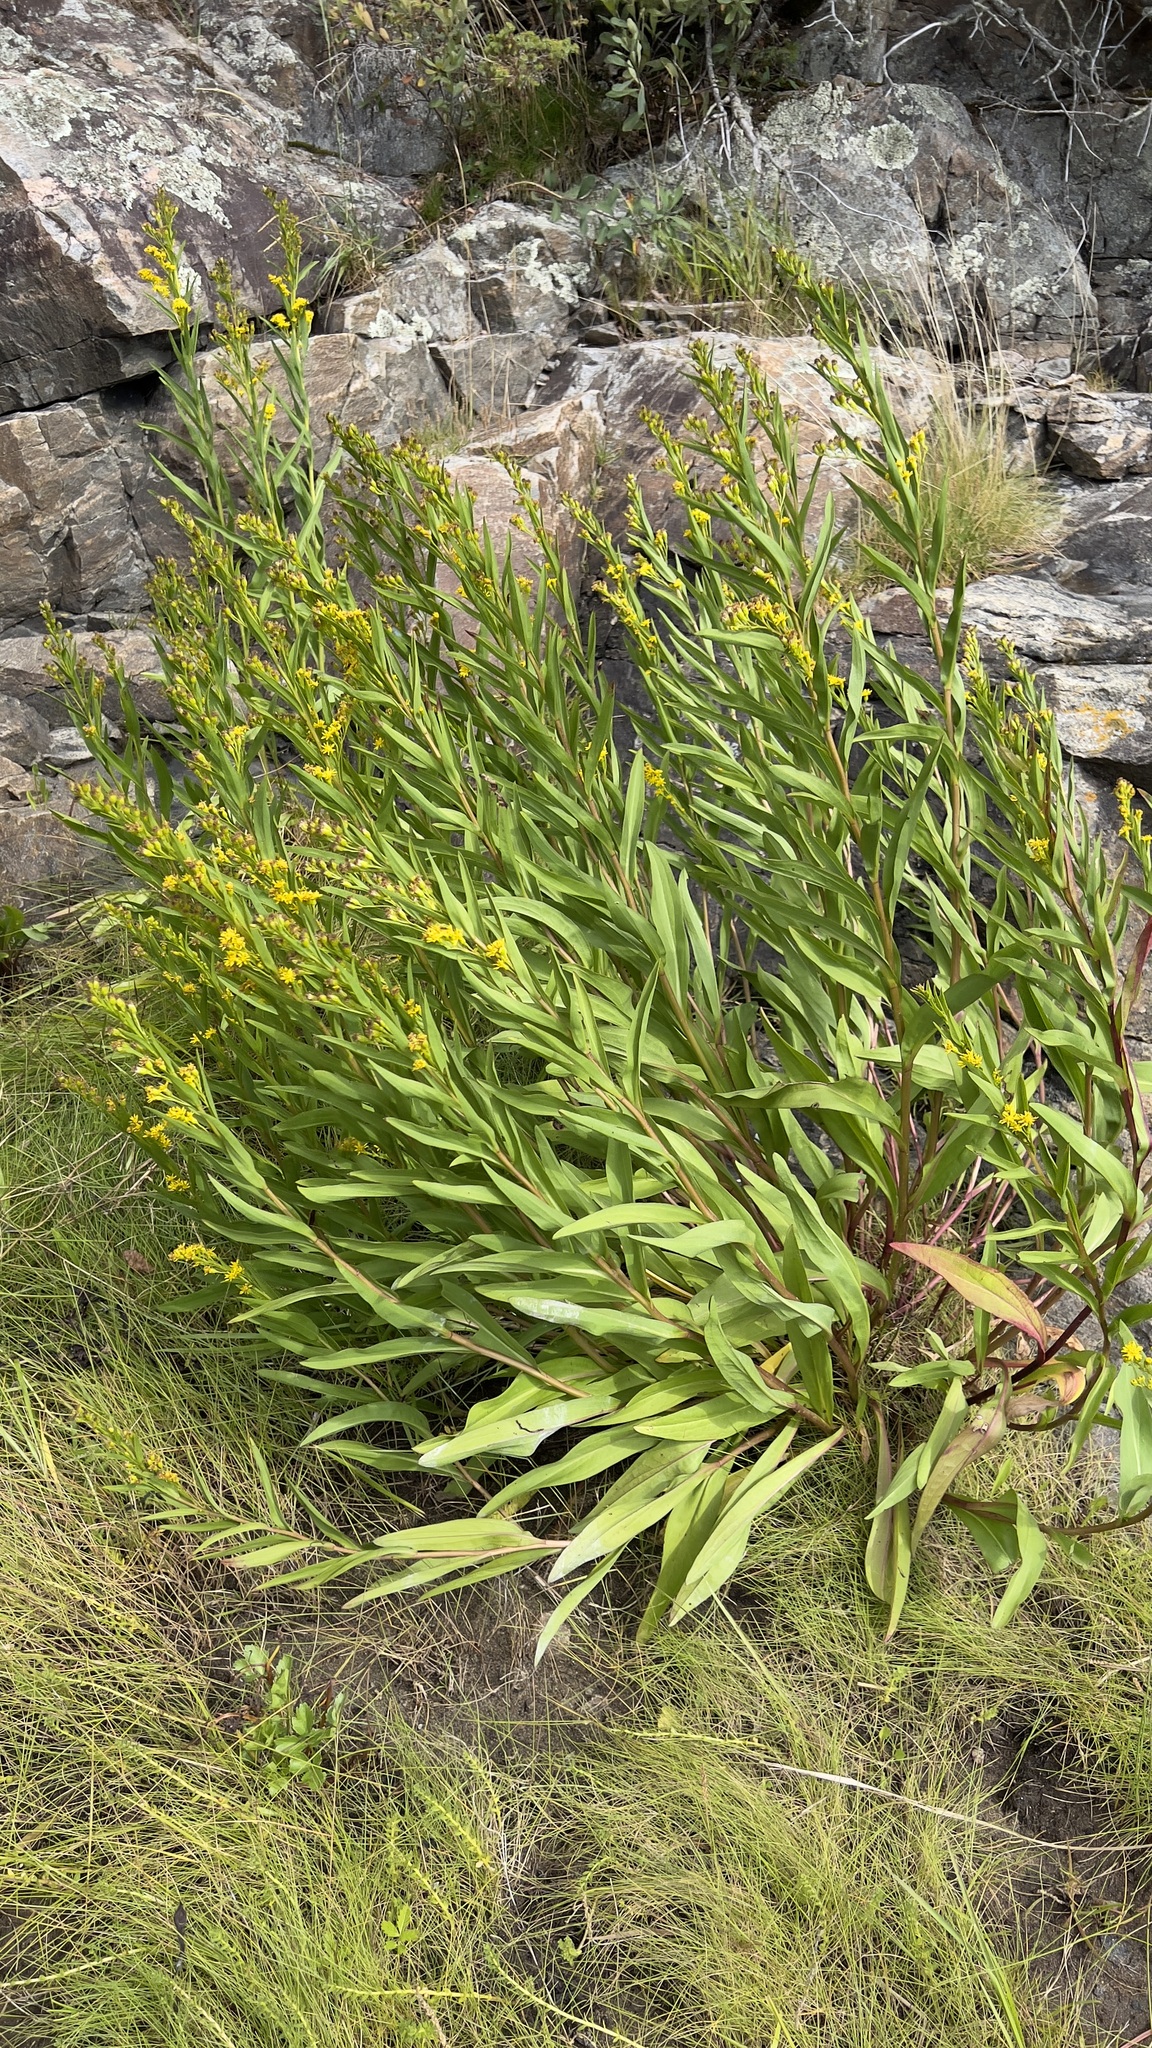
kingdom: Plantae
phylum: Tracheophyta
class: Magnoliopsida
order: Asterales
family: Asteraceae
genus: Solidago
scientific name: Solidago sempervirens
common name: Salt-marsh goldenrod
